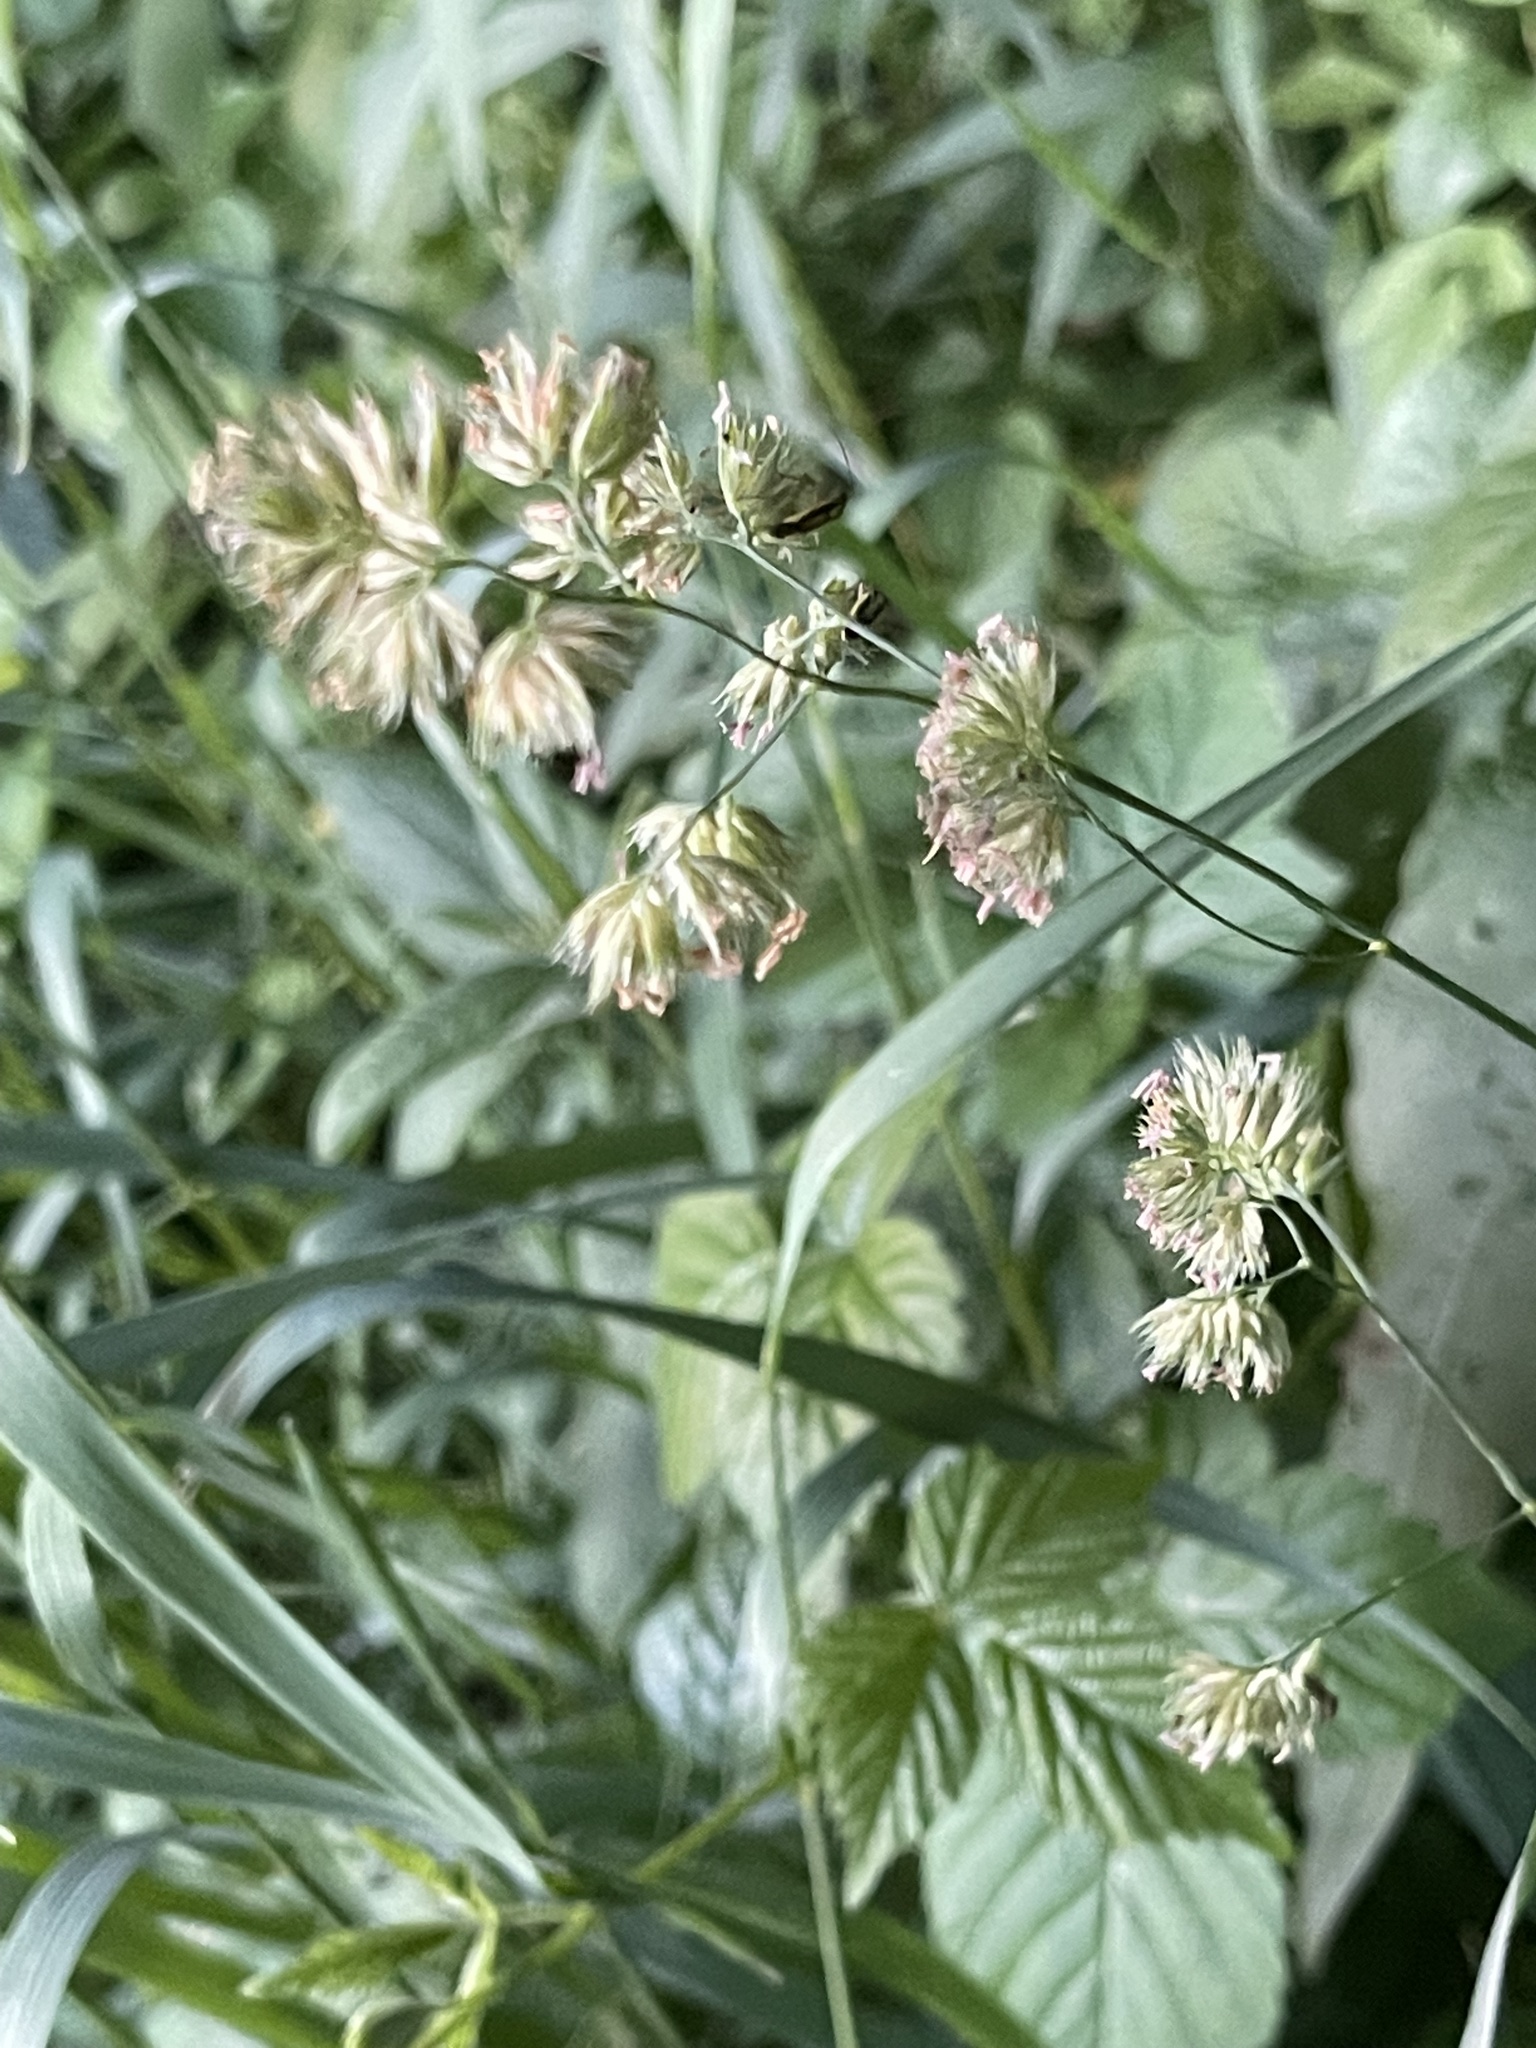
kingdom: Plantae
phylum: Tracheophyta
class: Liliopsida
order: Poales
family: Poaceae
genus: Dactylis
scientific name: Dactylis glomerata
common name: Orchardgrass
